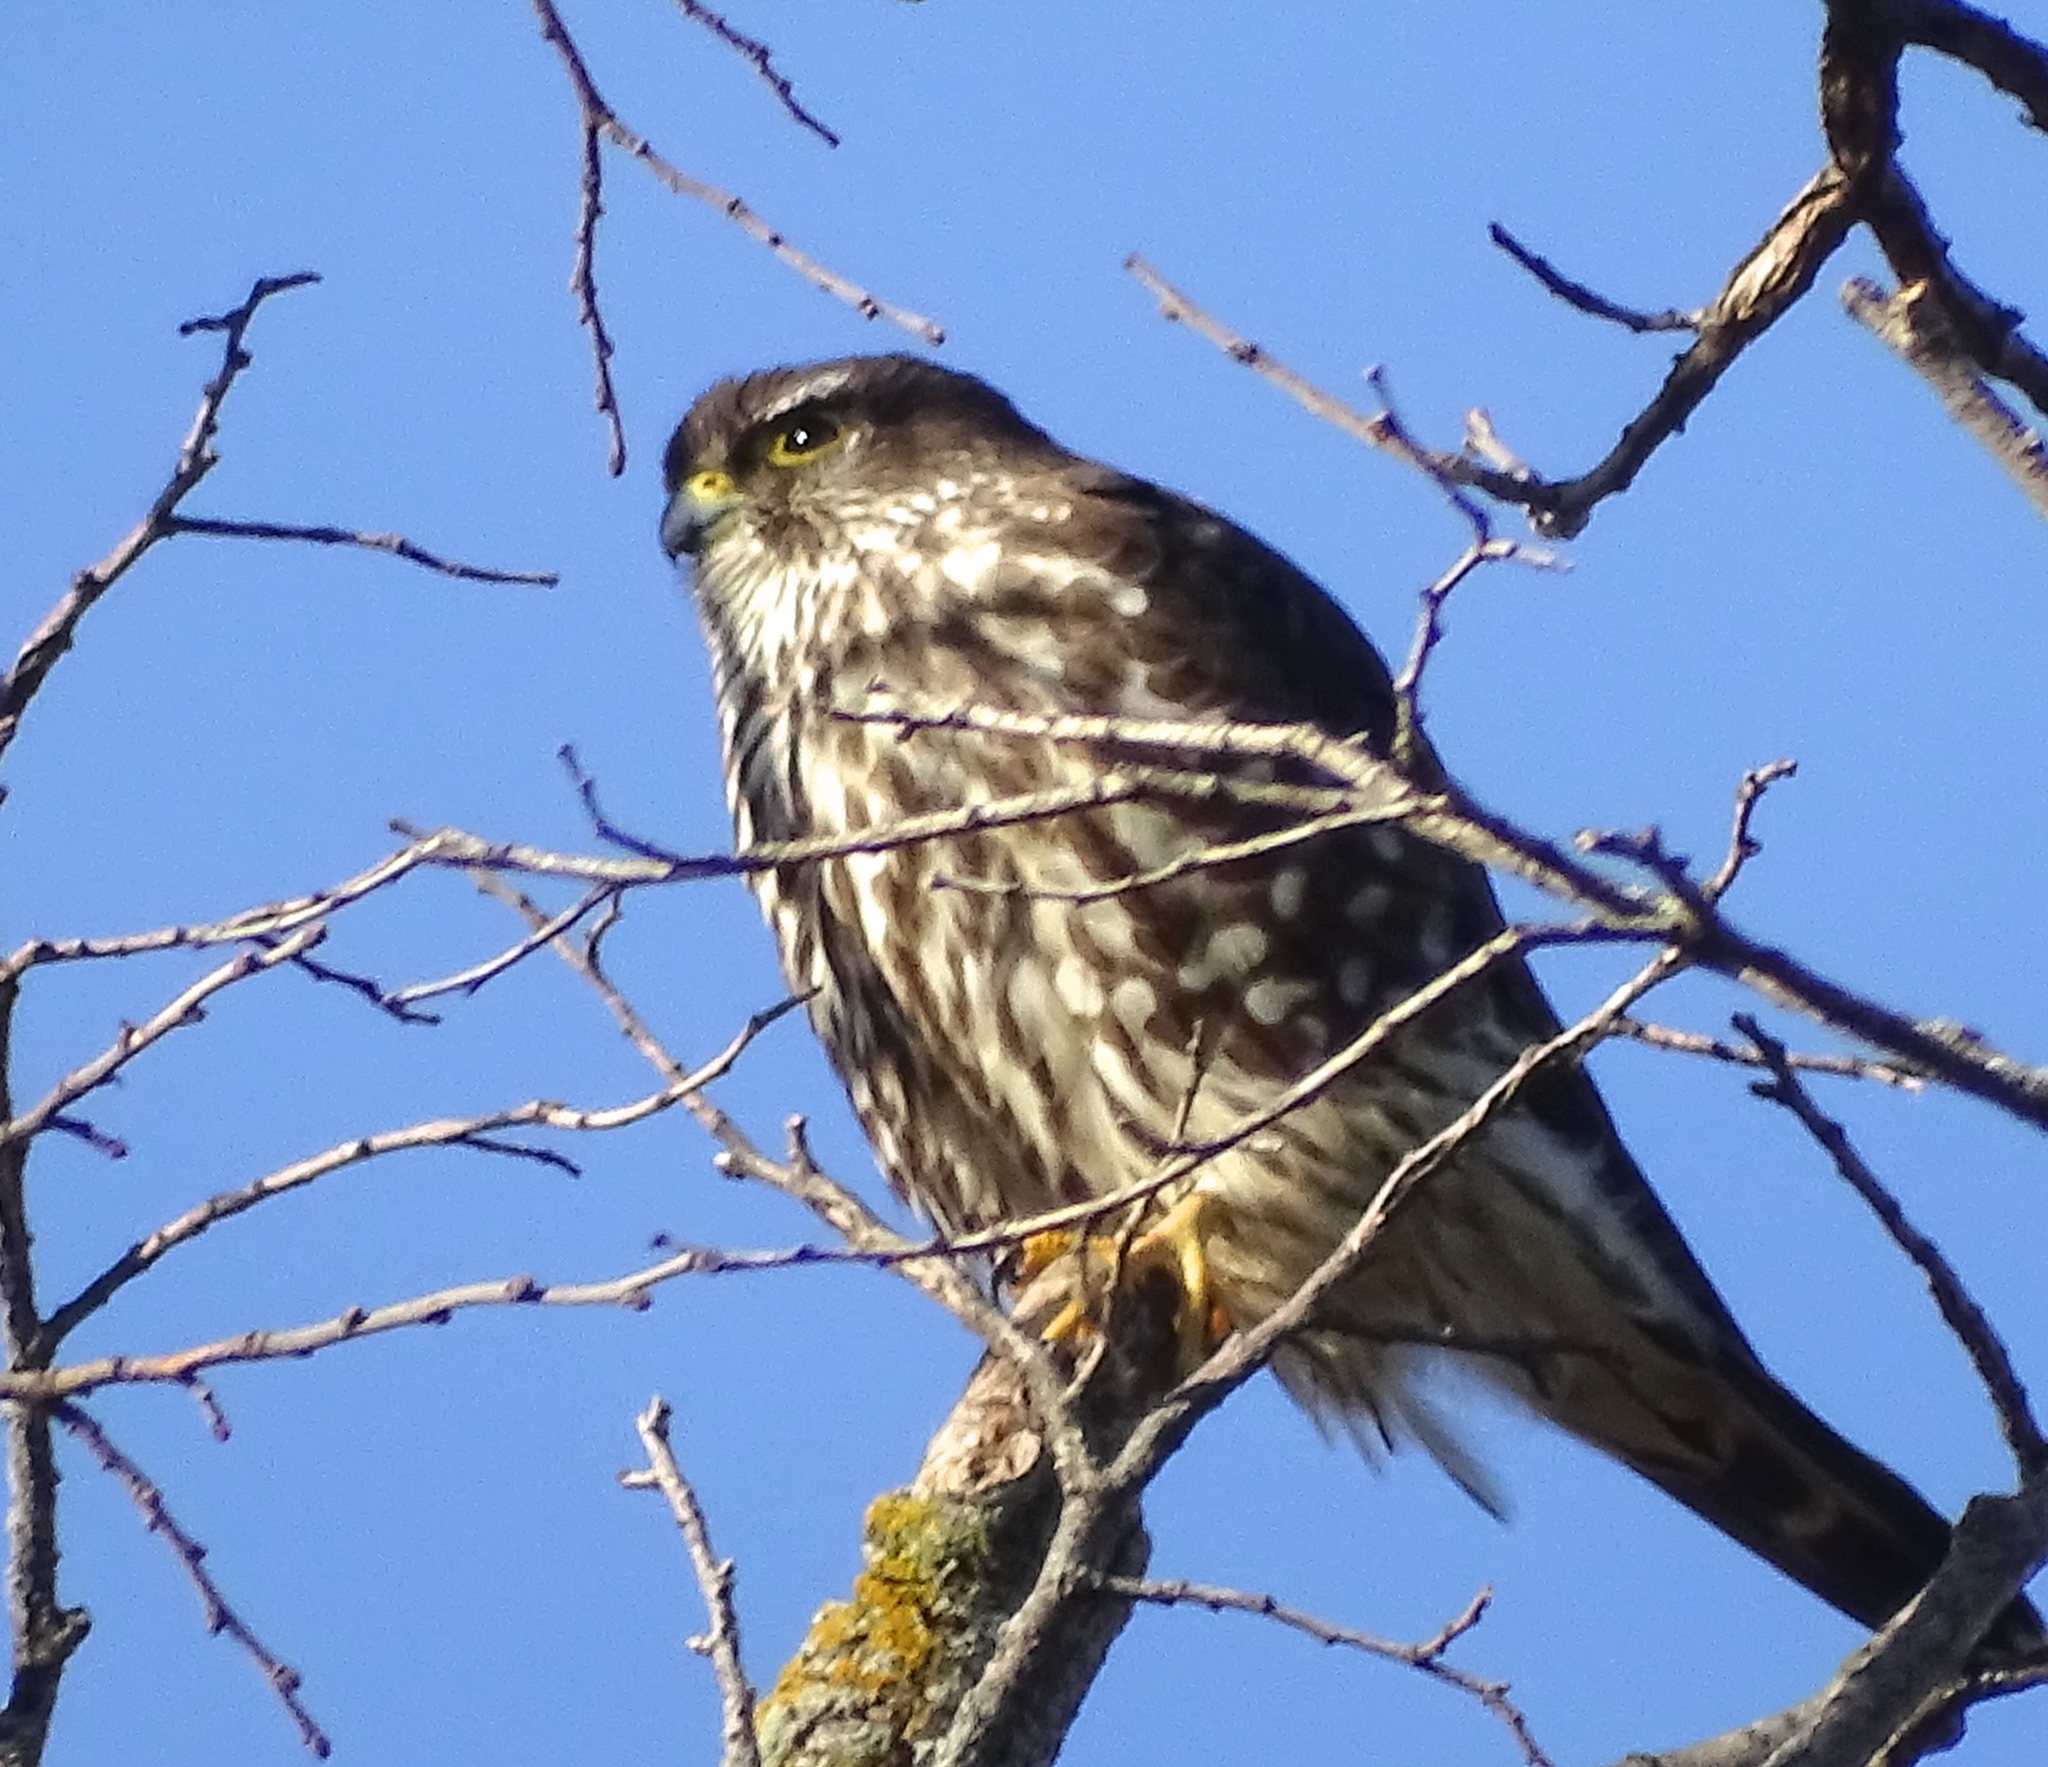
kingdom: Animalia
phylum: Chordata
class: Aves
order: Falconiformes
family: Falconidae
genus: Falco
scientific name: Falco columbarius
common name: Merlin
